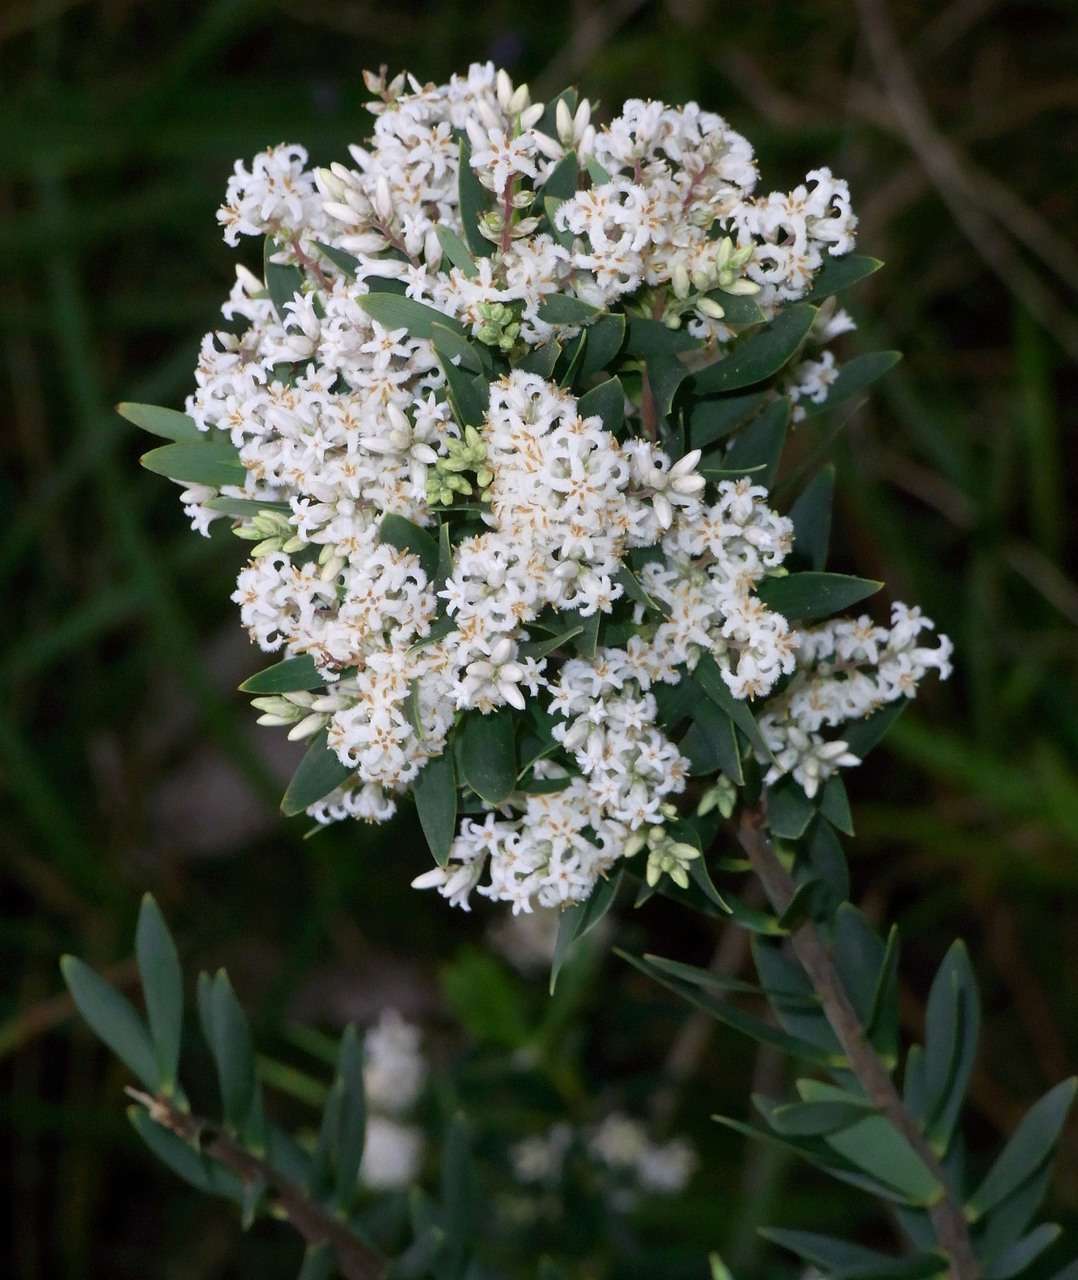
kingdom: Plantae
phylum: Tracheophyta
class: Magnoliopsida
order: Ericales
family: Ericaceae
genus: Leptecophylla
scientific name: Leptecophylla parvifolia
